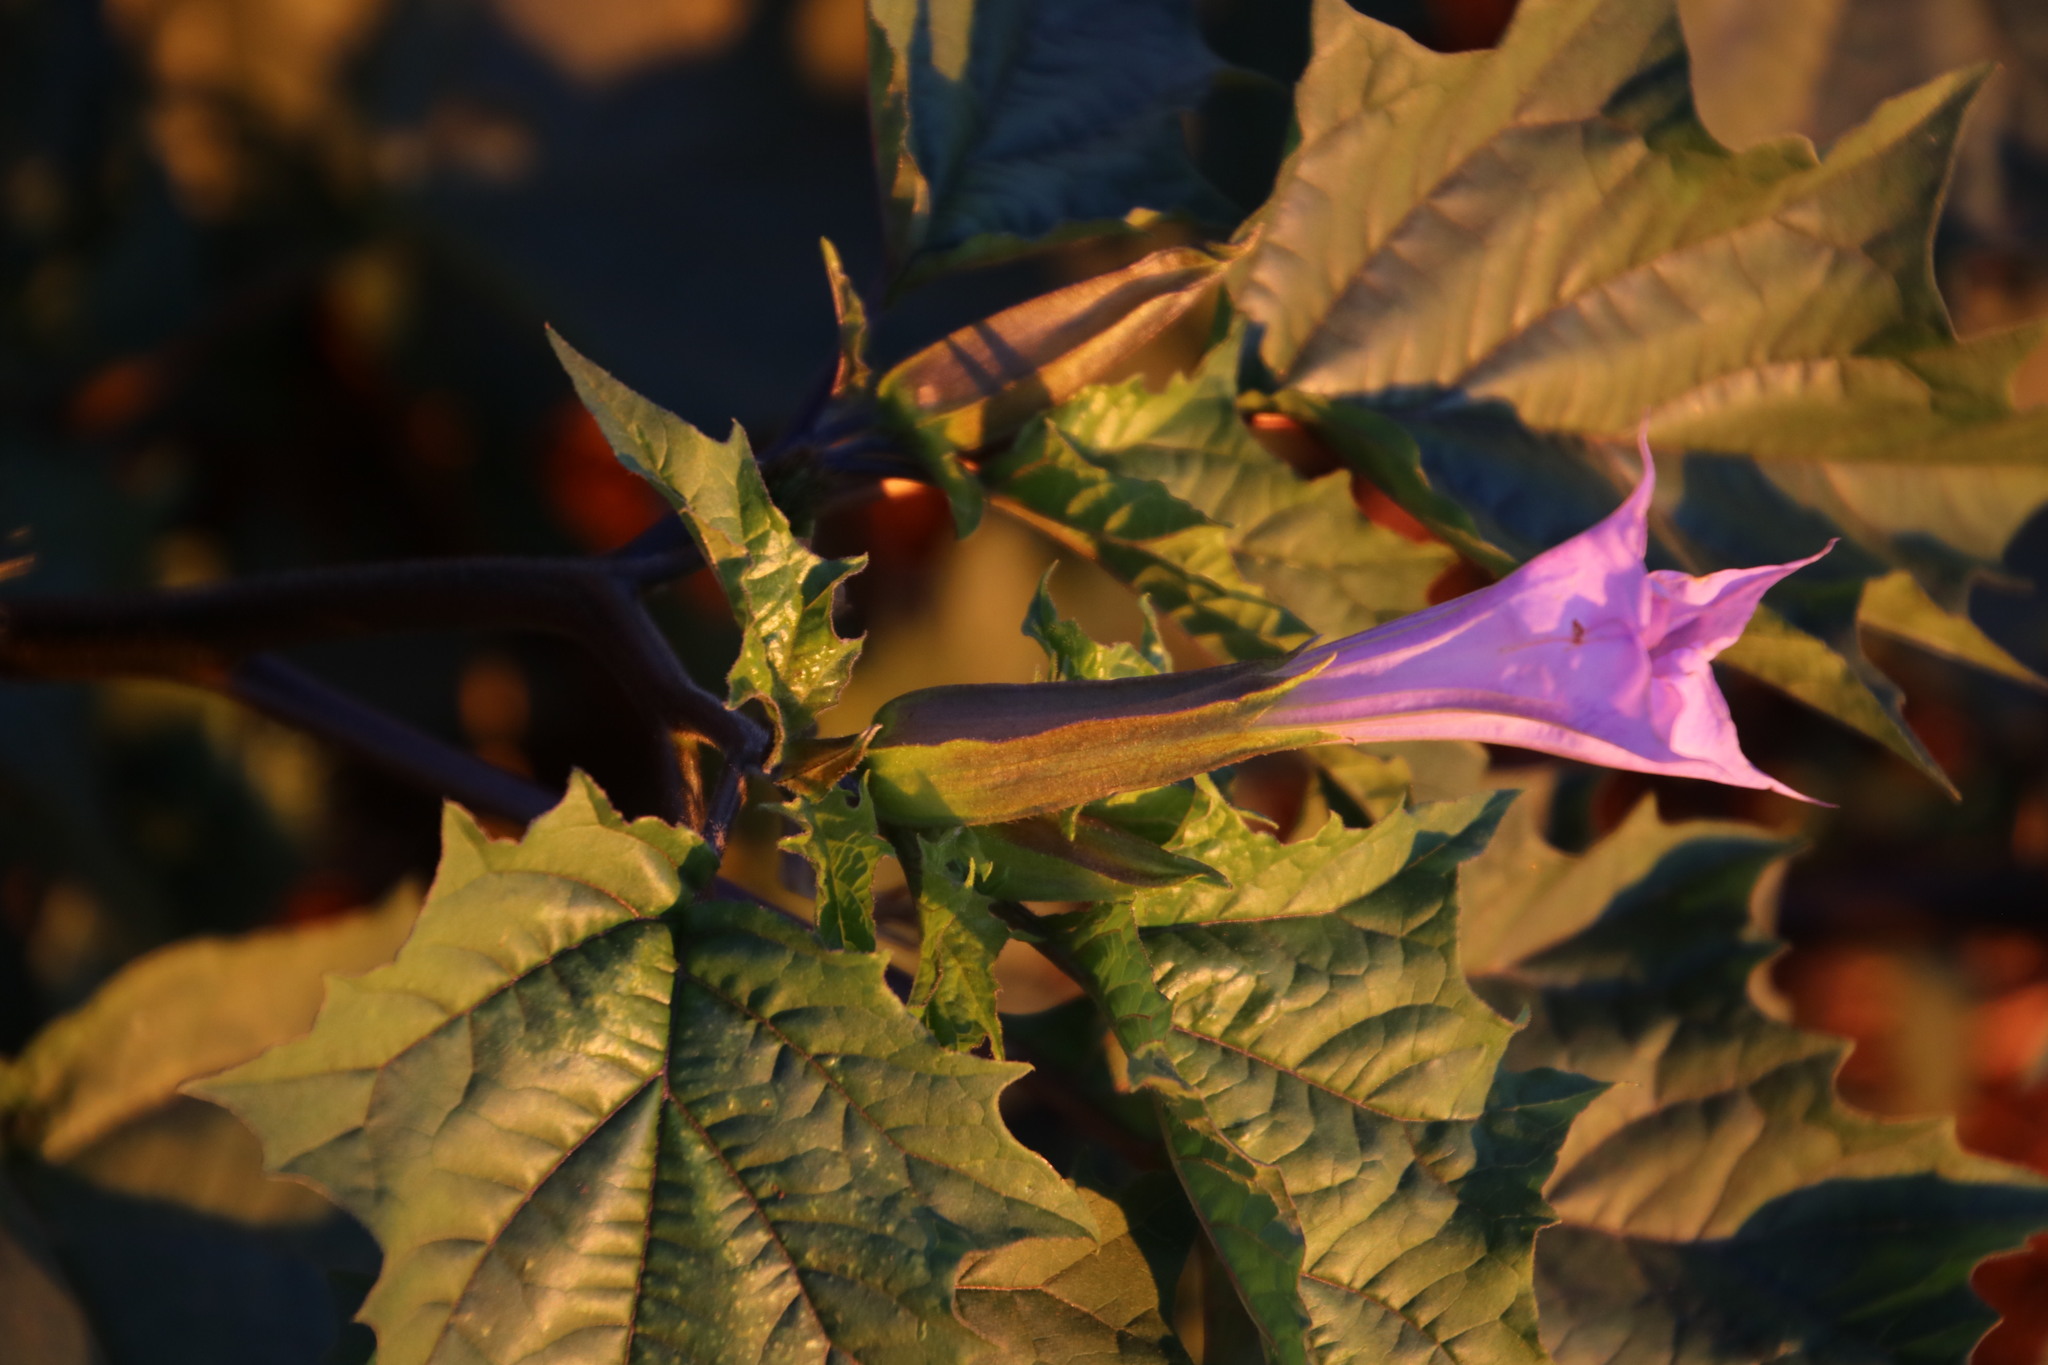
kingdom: Plantae
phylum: Tracheophyta
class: Magnoliopsida
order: Solanales
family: Solanaceae
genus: Datura
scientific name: Datura stramonium
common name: Thorn-apple
